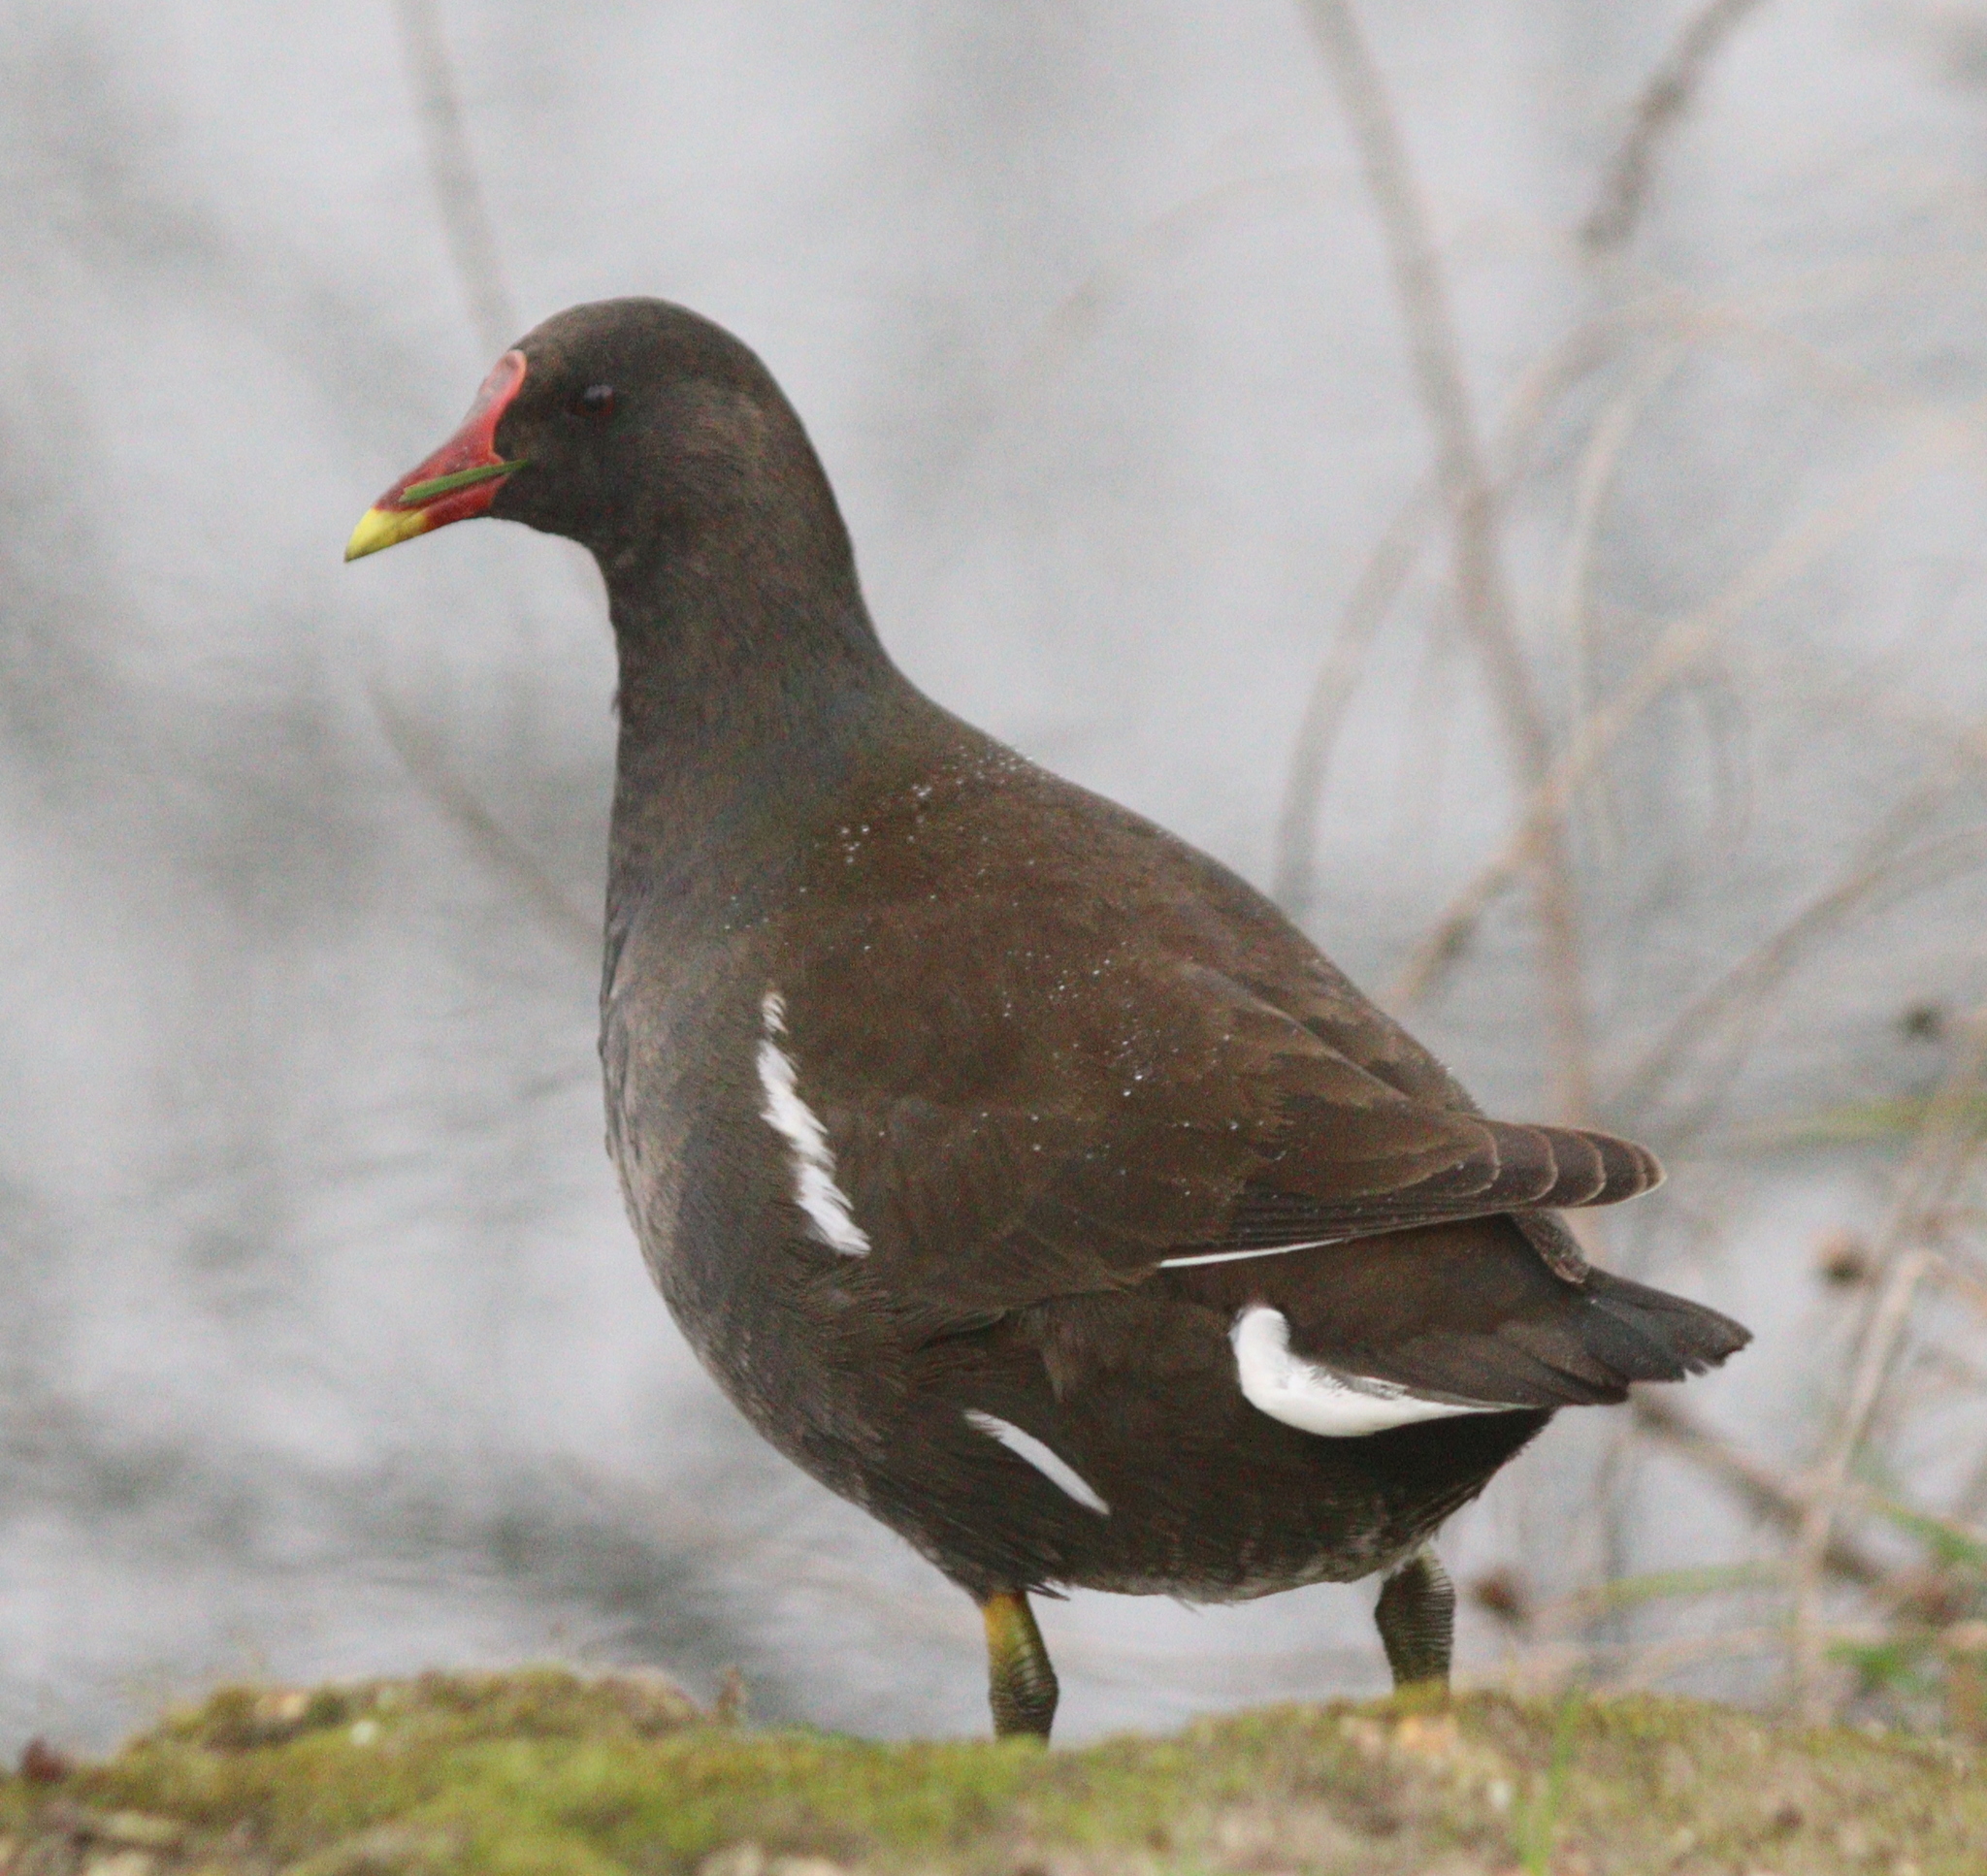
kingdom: Animalia
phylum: Chordata
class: Aves
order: Gruiformes
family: Rallidae
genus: Gallinula
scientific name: Gallinula chloropus
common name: Common moorhen
